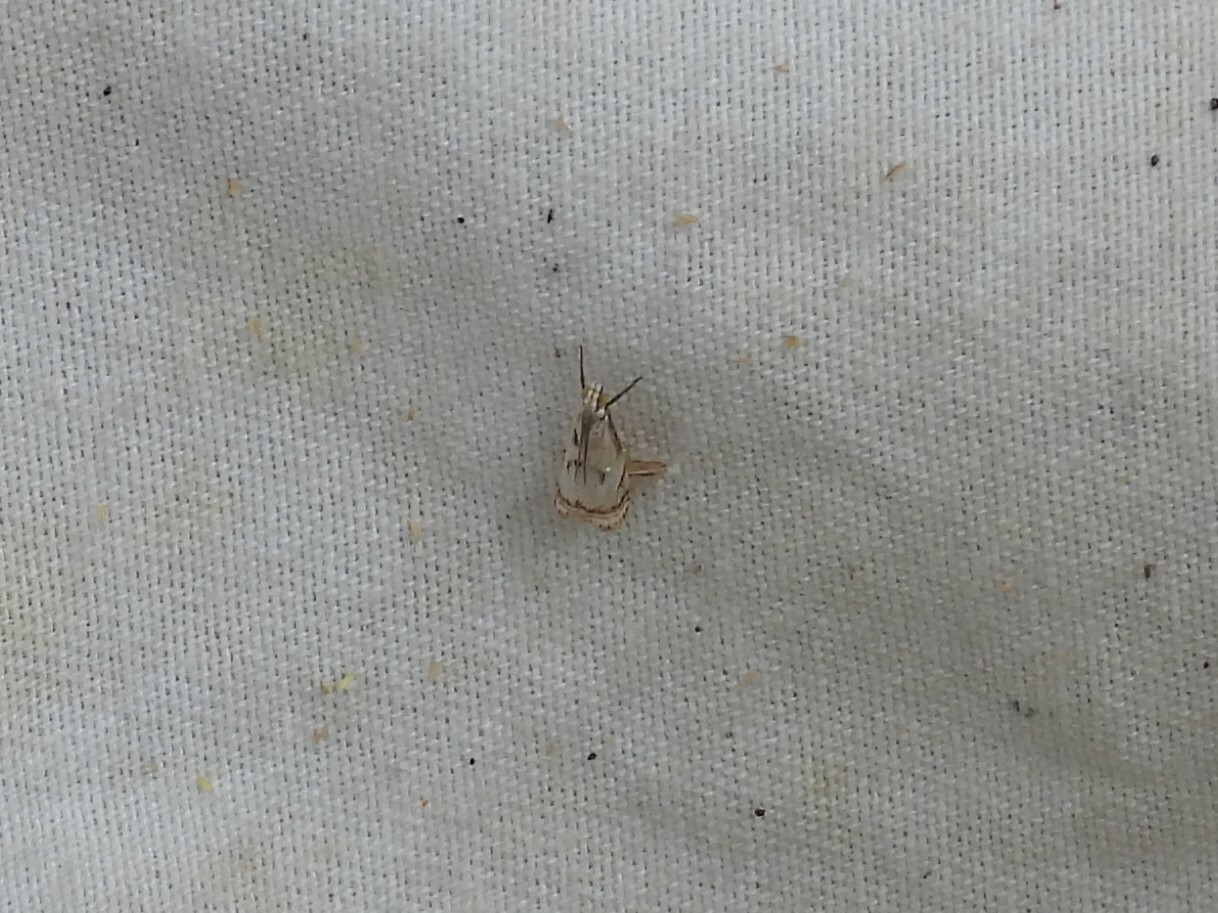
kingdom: Animalia
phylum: Arthropoda
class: Insecta
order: Lepidoptera
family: Crambidae
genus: Microcrambus
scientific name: Microcrambus elegans
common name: Elegant grass-veneer
